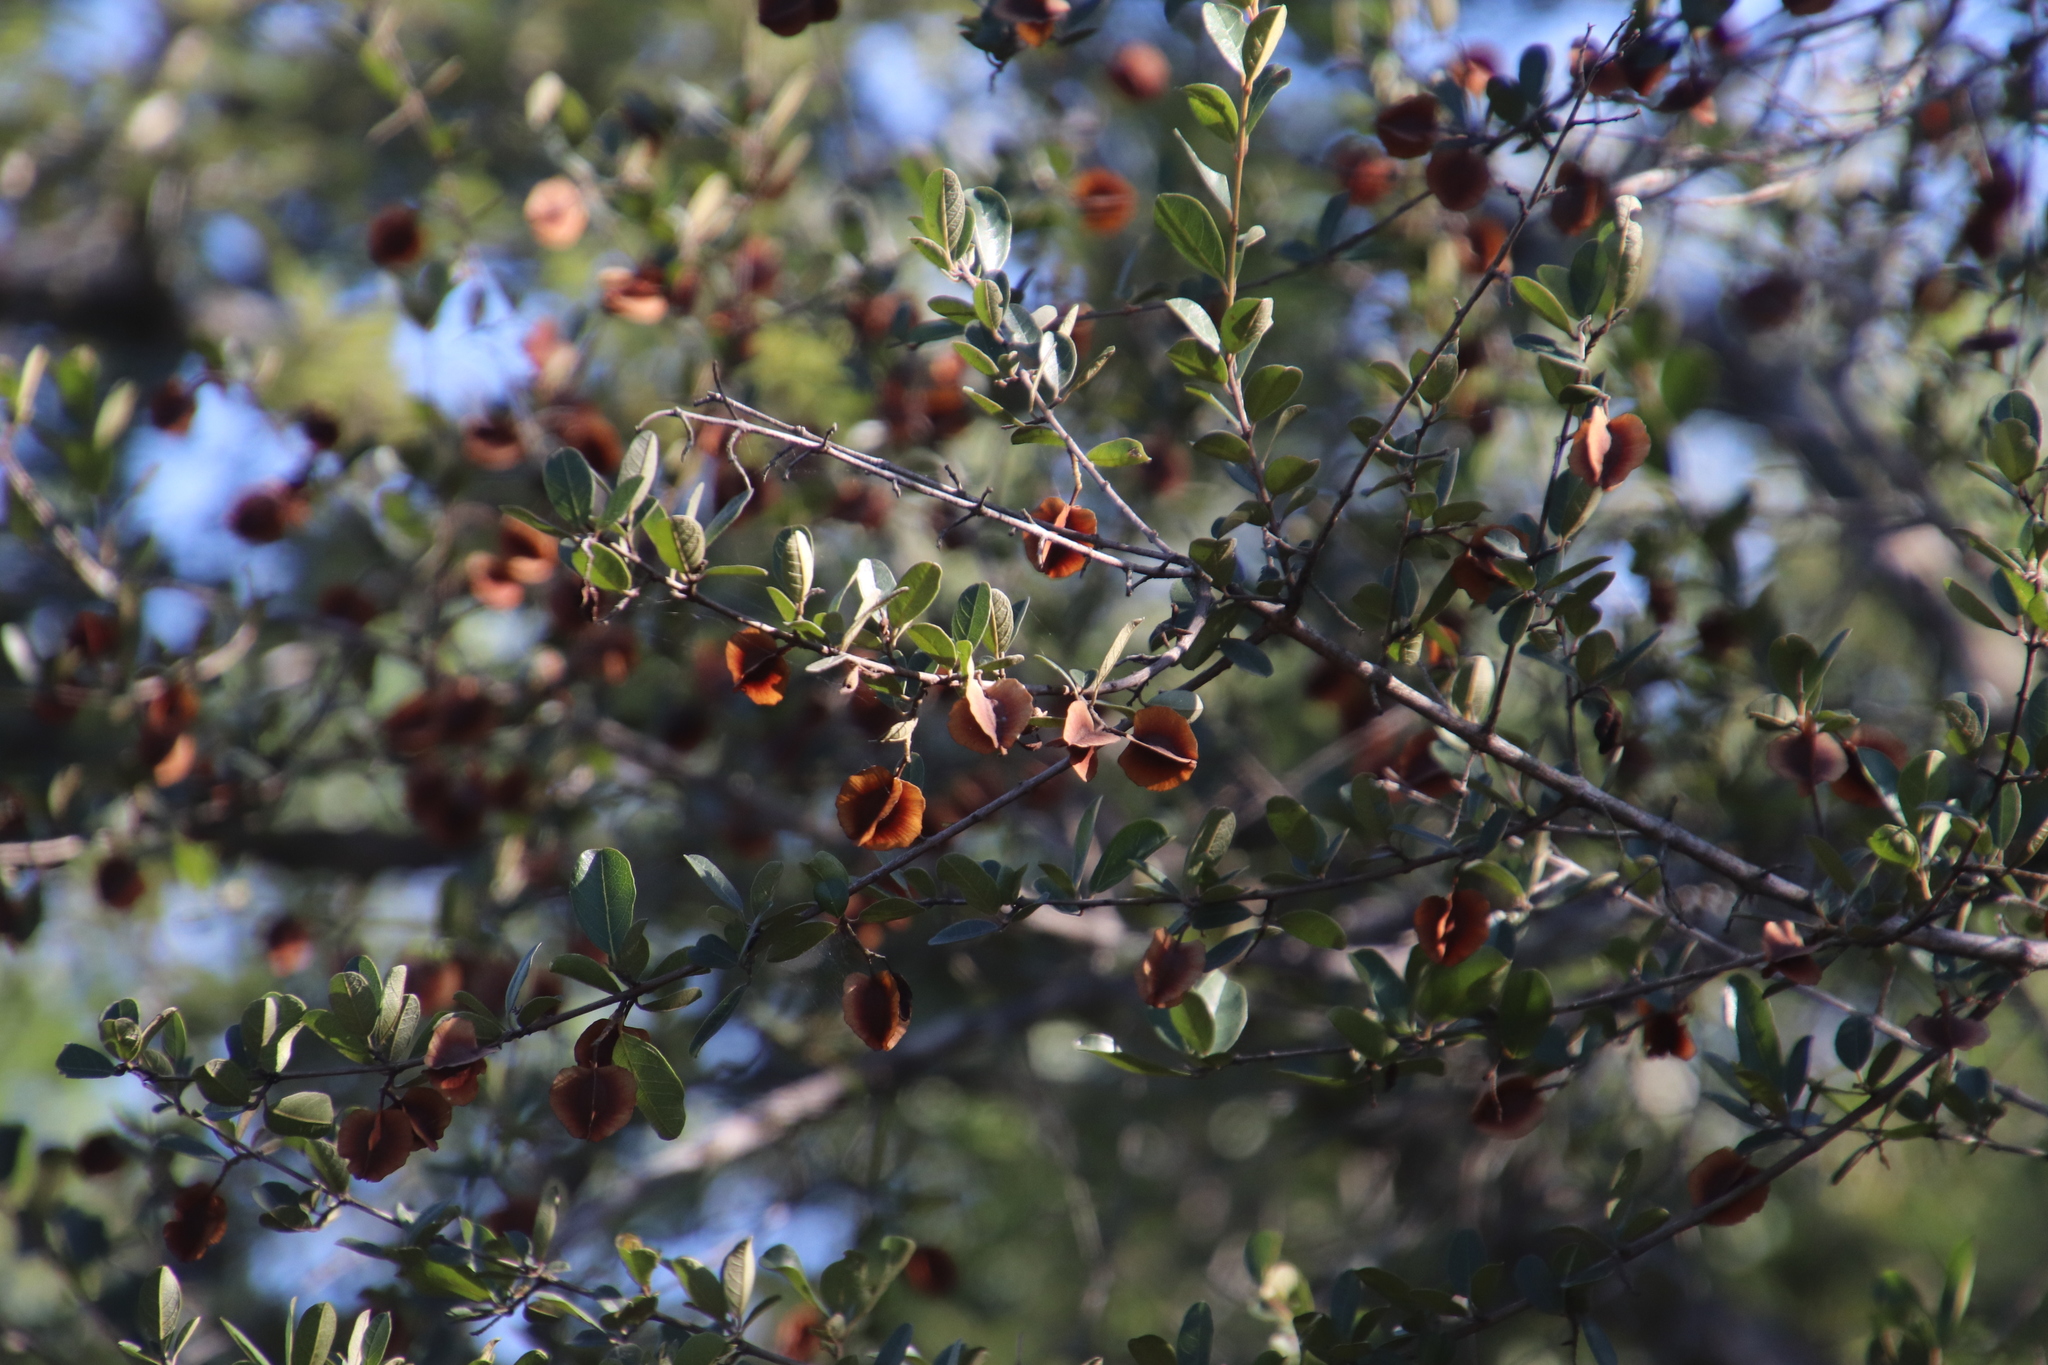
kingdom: Plantae
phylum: Tracheophyta
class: Magnoliopsida
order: Myrtales
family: Combretaceae
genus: Combretum
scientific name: Combretum hereroense
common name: Russet bushwillow
